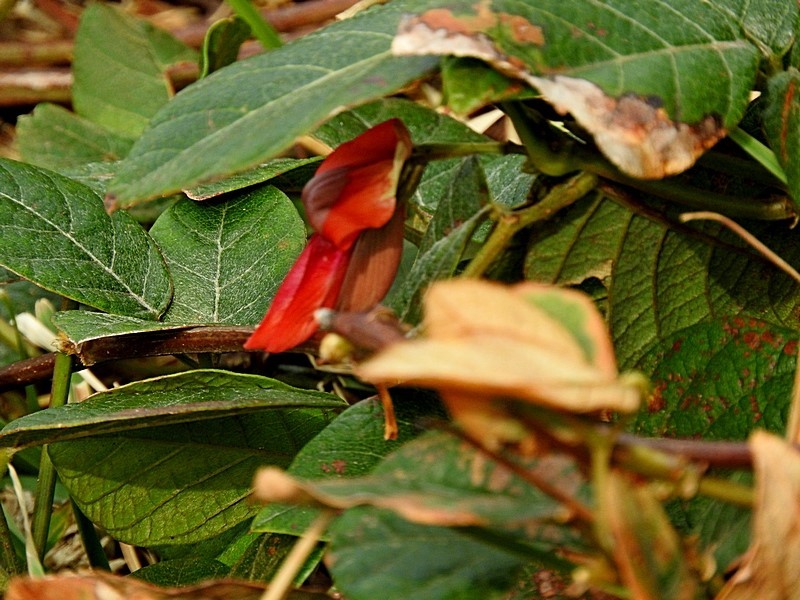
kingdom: Plantae
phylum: Tracheophyta
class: Magnoliopsida
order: Fabales
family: Fabaceae
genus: Kennedia
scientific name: Kennedia rubicunda
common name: Red kennedy-pea
